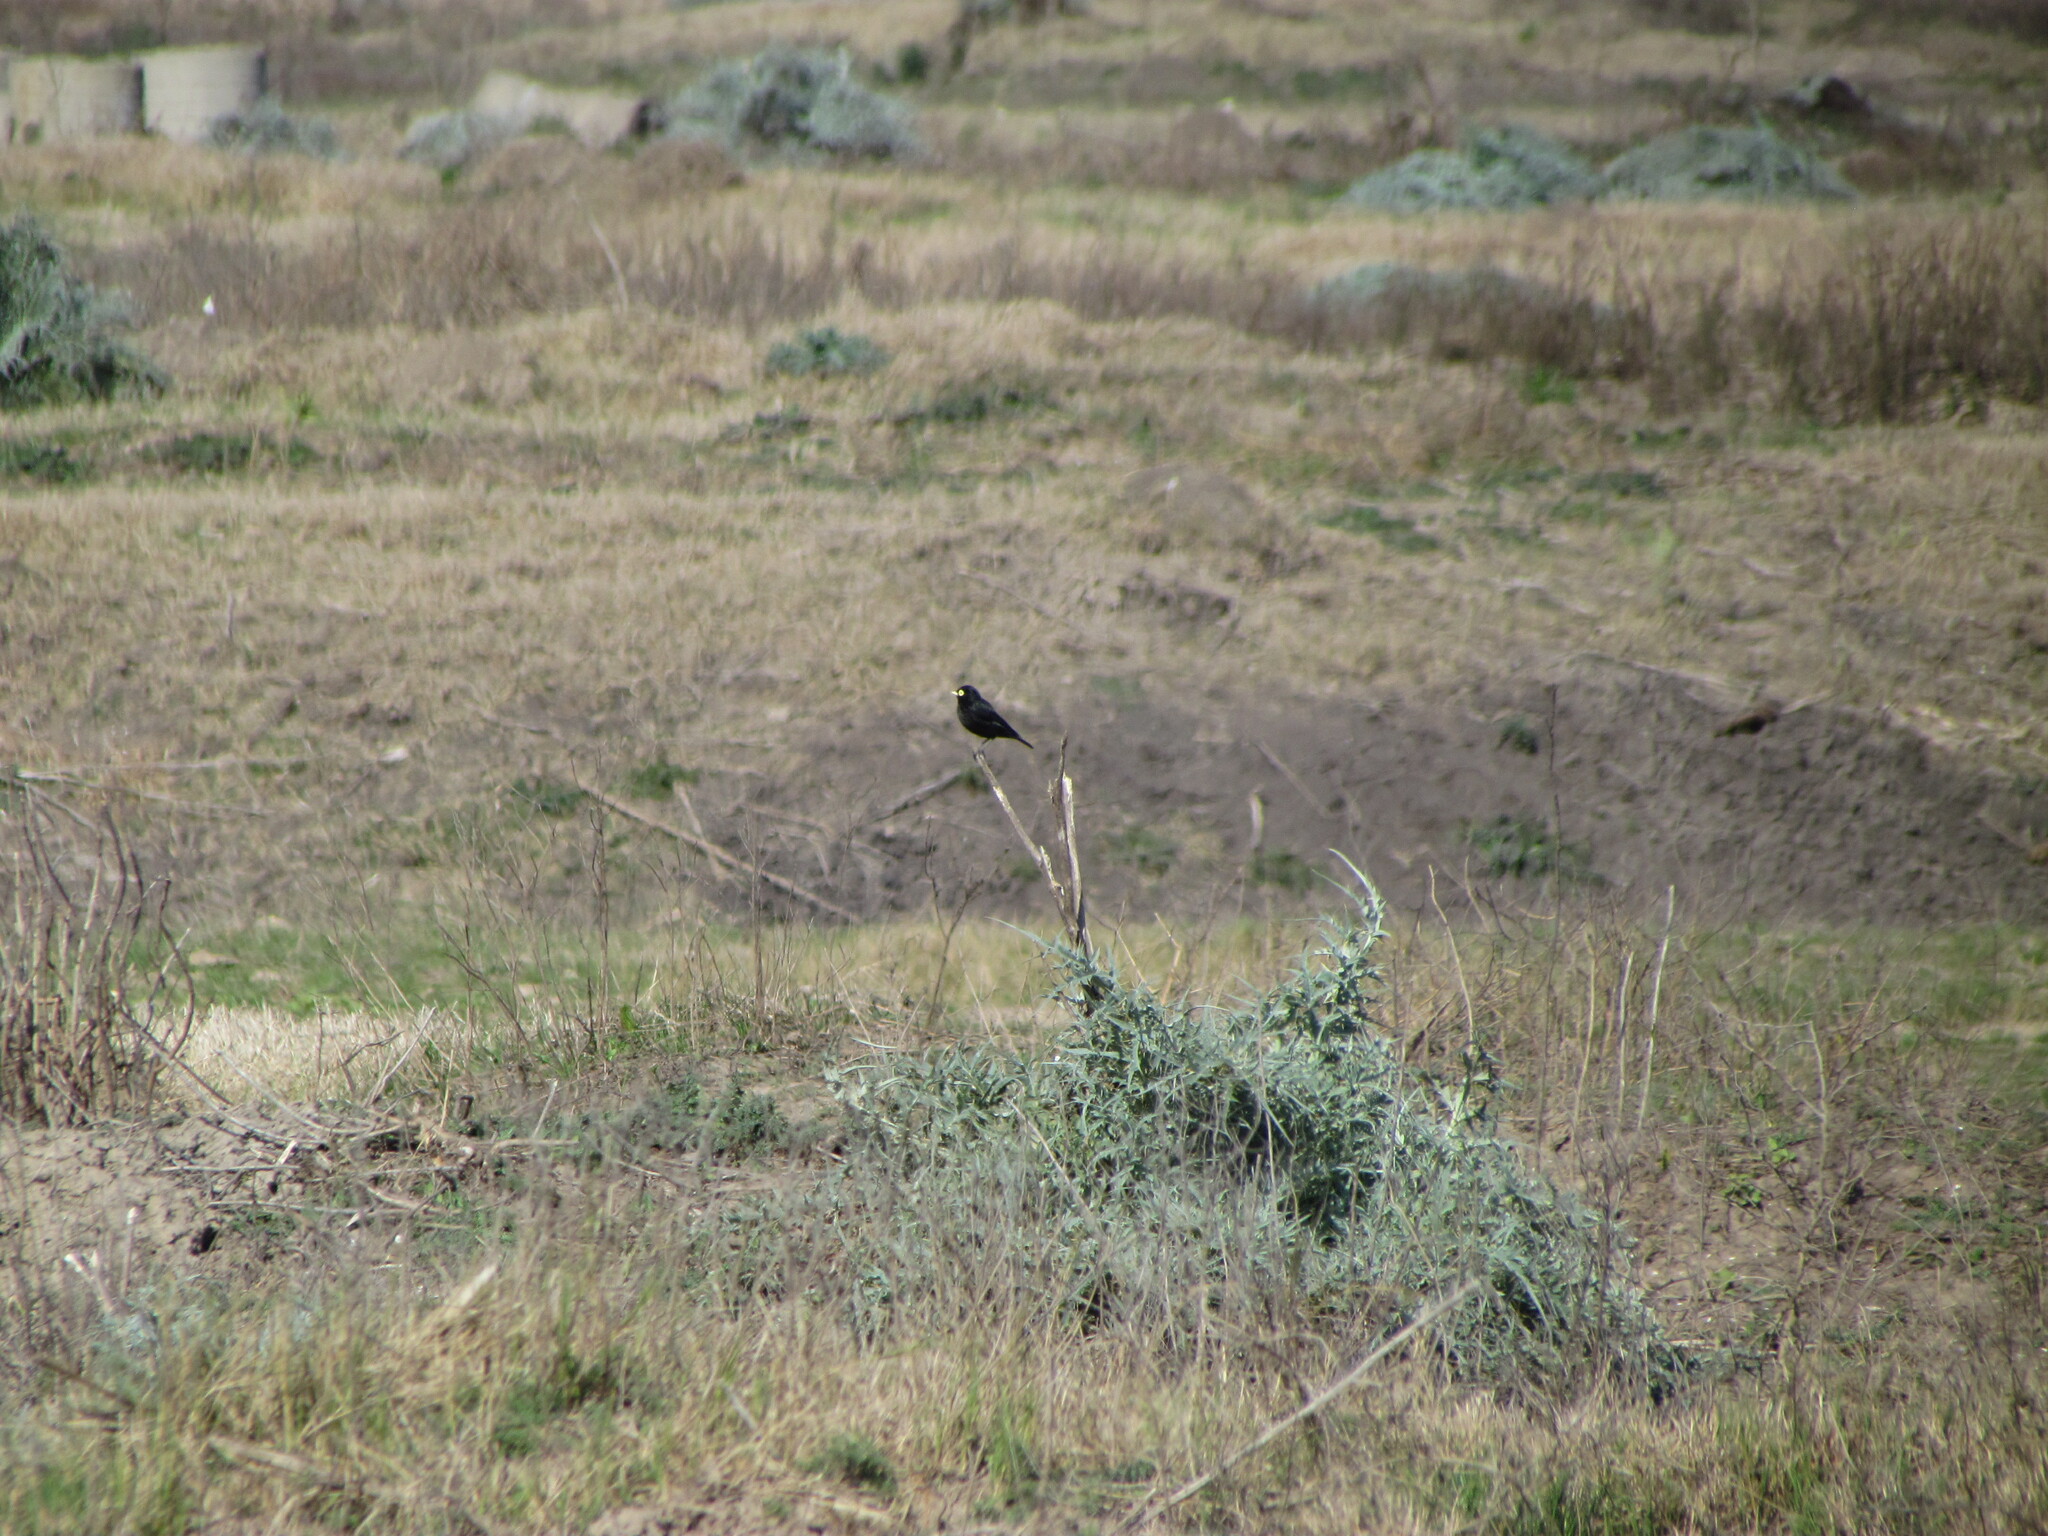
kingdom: Animalia
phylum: Chordata
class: Aves
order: Passeriformes
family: Tyrannidae
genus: Hymenops
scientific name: Hymenops perspicillatus
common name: Spectacled tyrant
